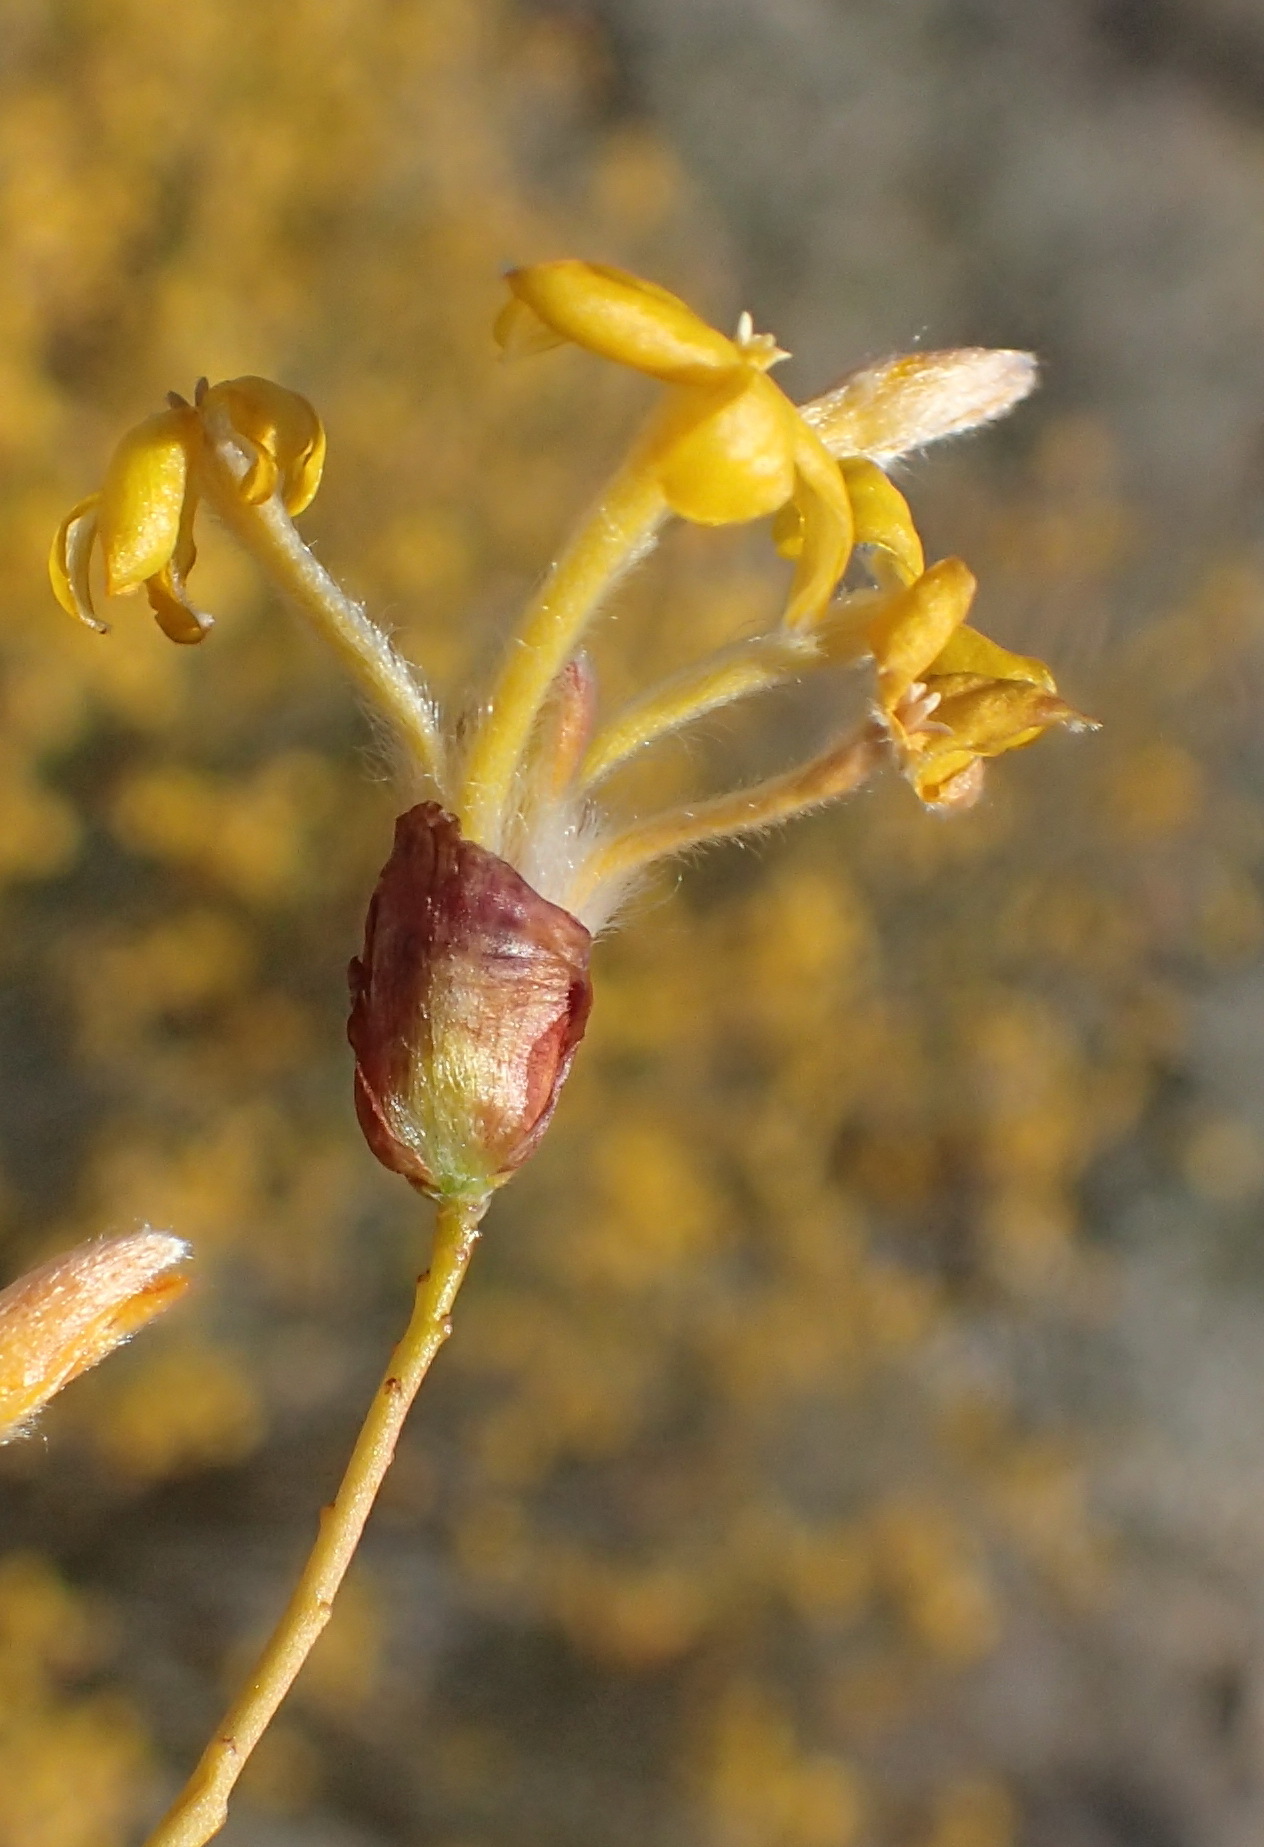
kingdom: Plantae
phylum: Tracheophyta
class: Magnoliopsida
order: Malvales
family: Thymelaeaceae
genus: Gnidia
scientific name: Gnidia polycephala
